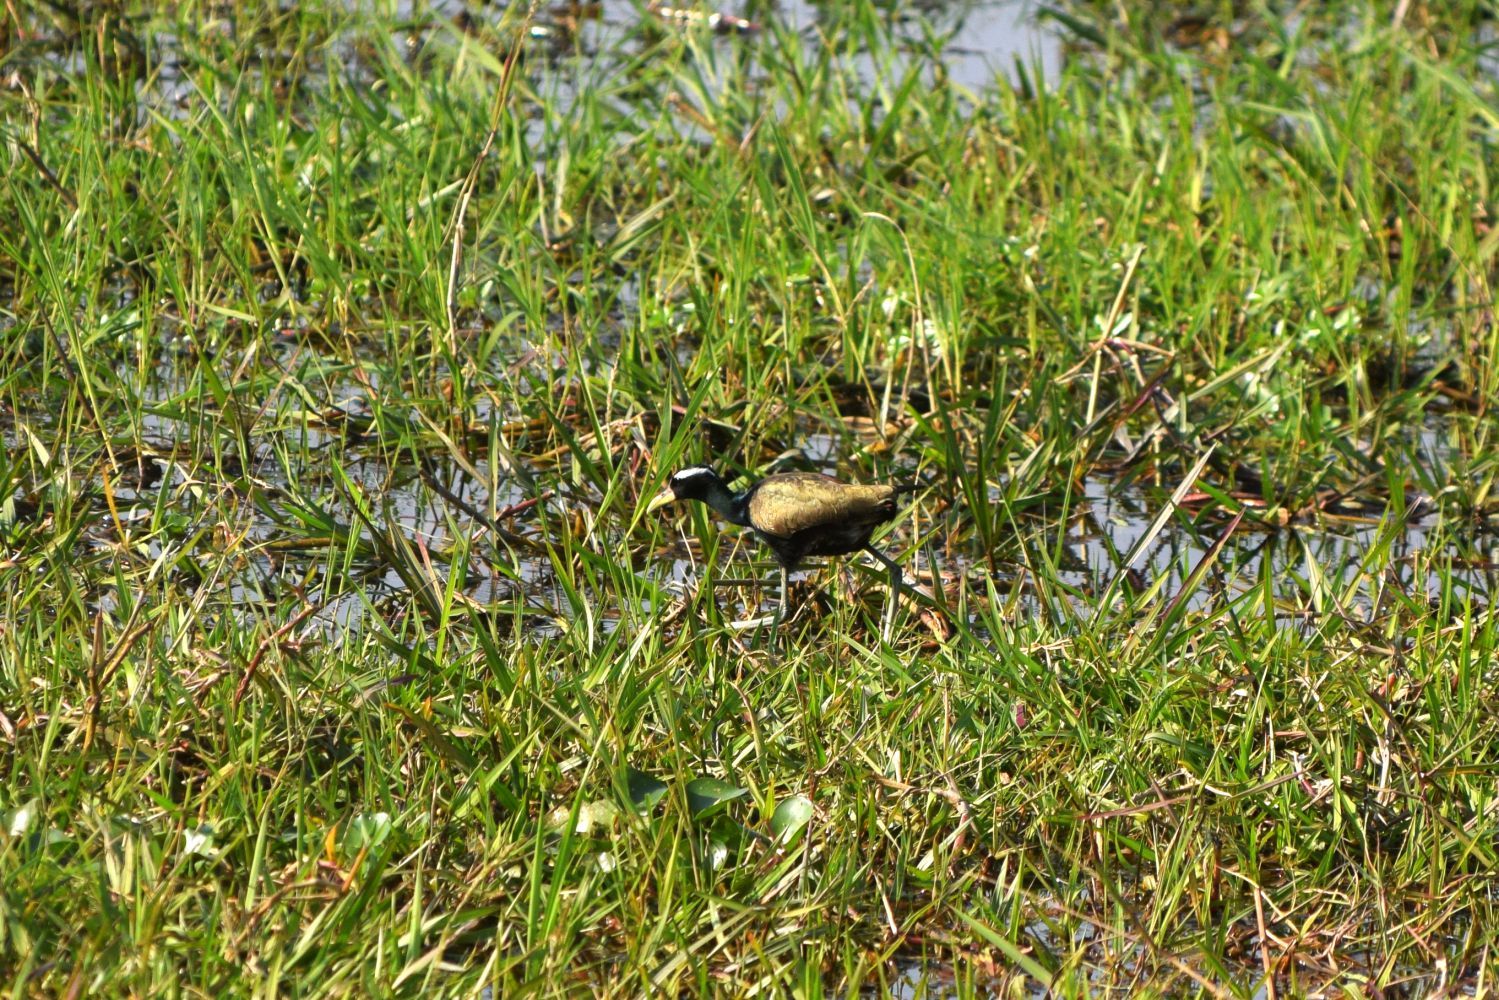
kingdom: Animalia
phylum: Chordata
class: Aves
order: Charadriiformes
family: Jacanidae
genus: Metopidius
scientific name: Metopidius indicus
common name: Bronze-winged jacana
